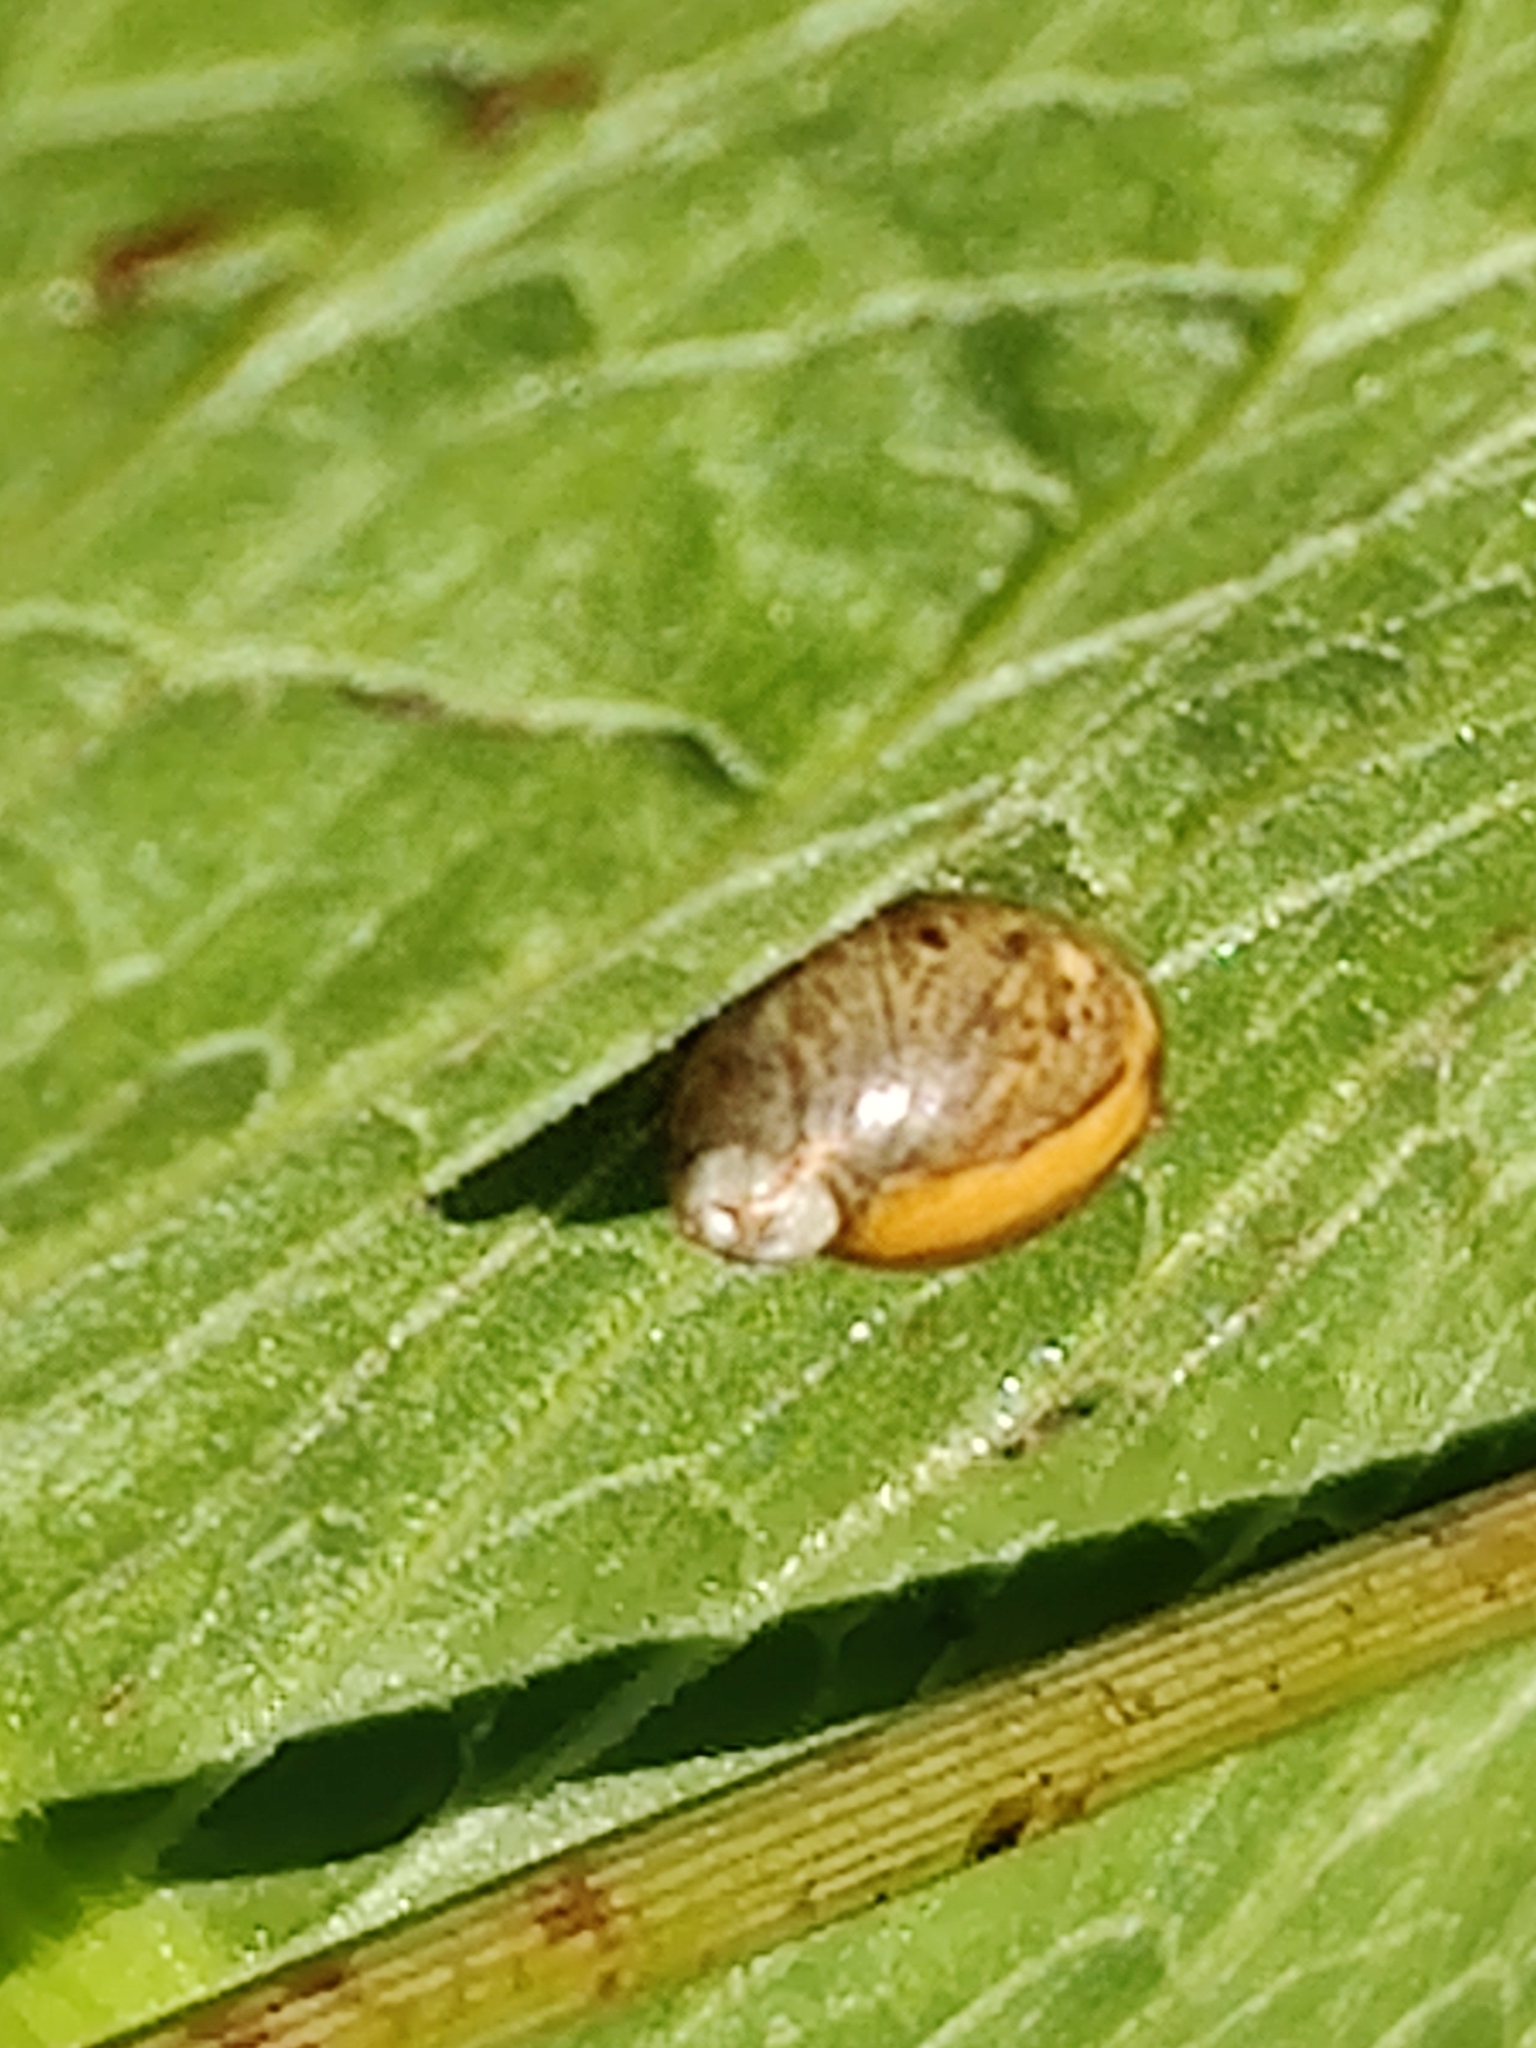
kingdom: Animalia
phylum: Mollusca
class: Gastropoda
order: Stylommatophora
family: Succineidae
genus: Succinea
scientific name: Succinea putris
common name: European ambersnail
